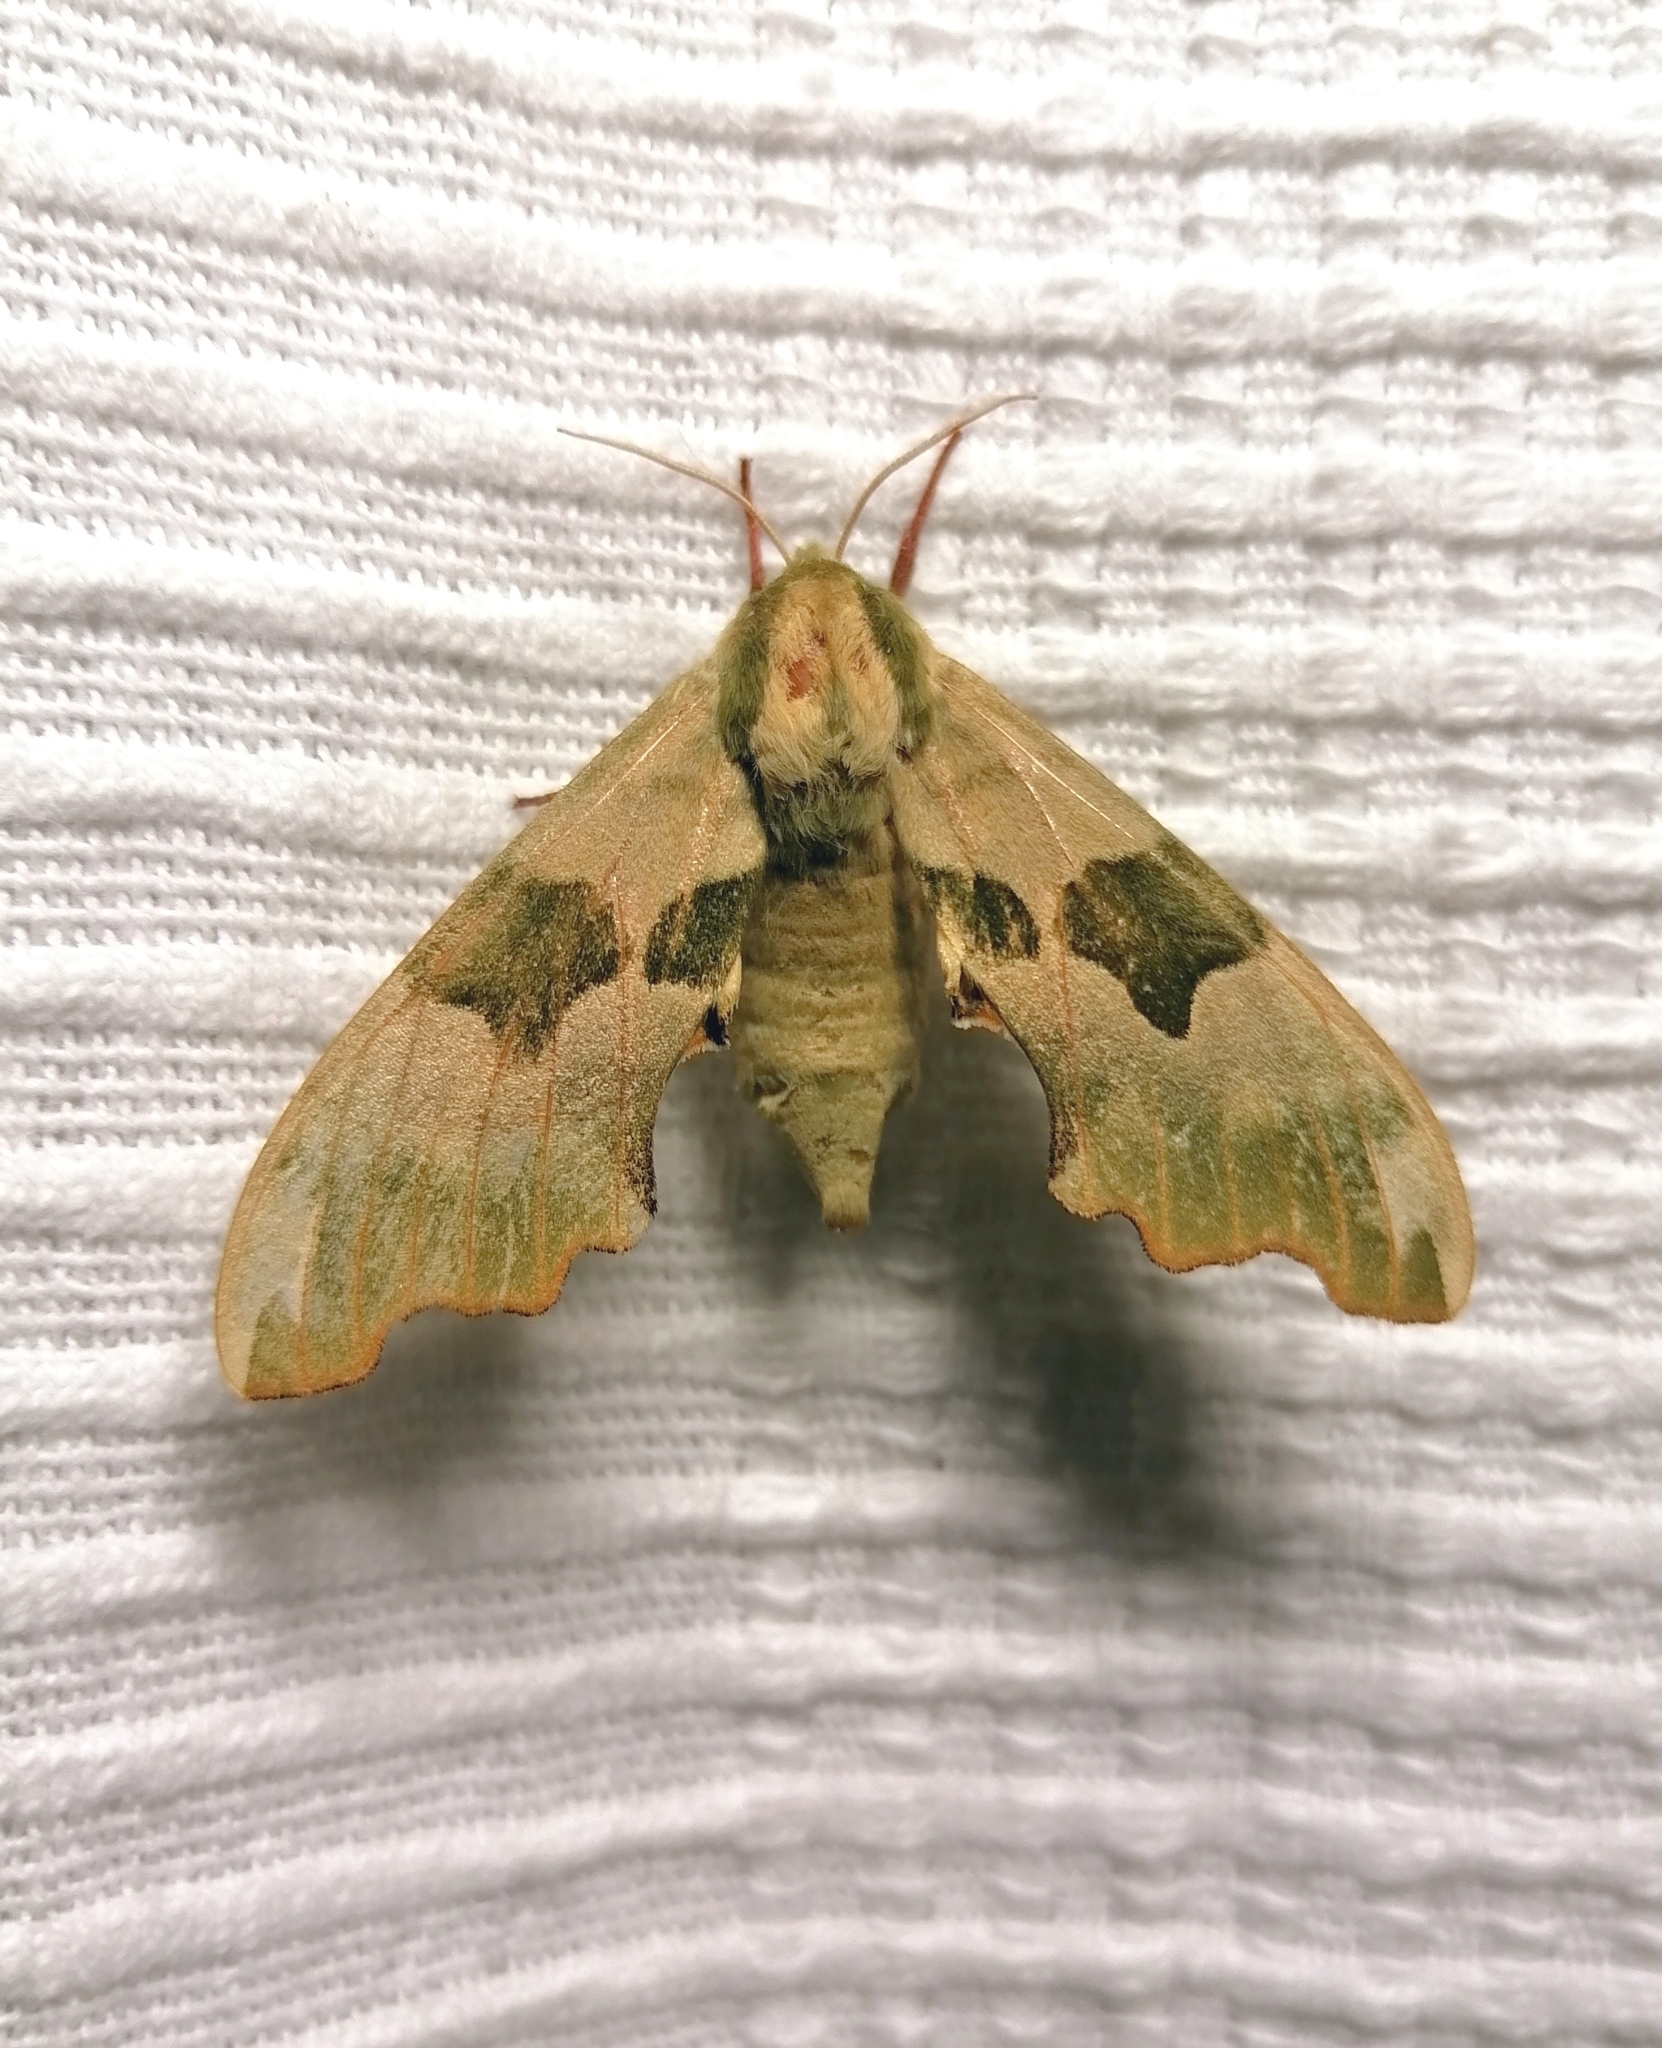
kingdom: Animalia
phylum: Arthropoda
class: Insecta
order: Lepidoptera
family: Sphingidae
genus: Mimas
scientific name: Mimas tiliae
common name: Lime hawk-moth
